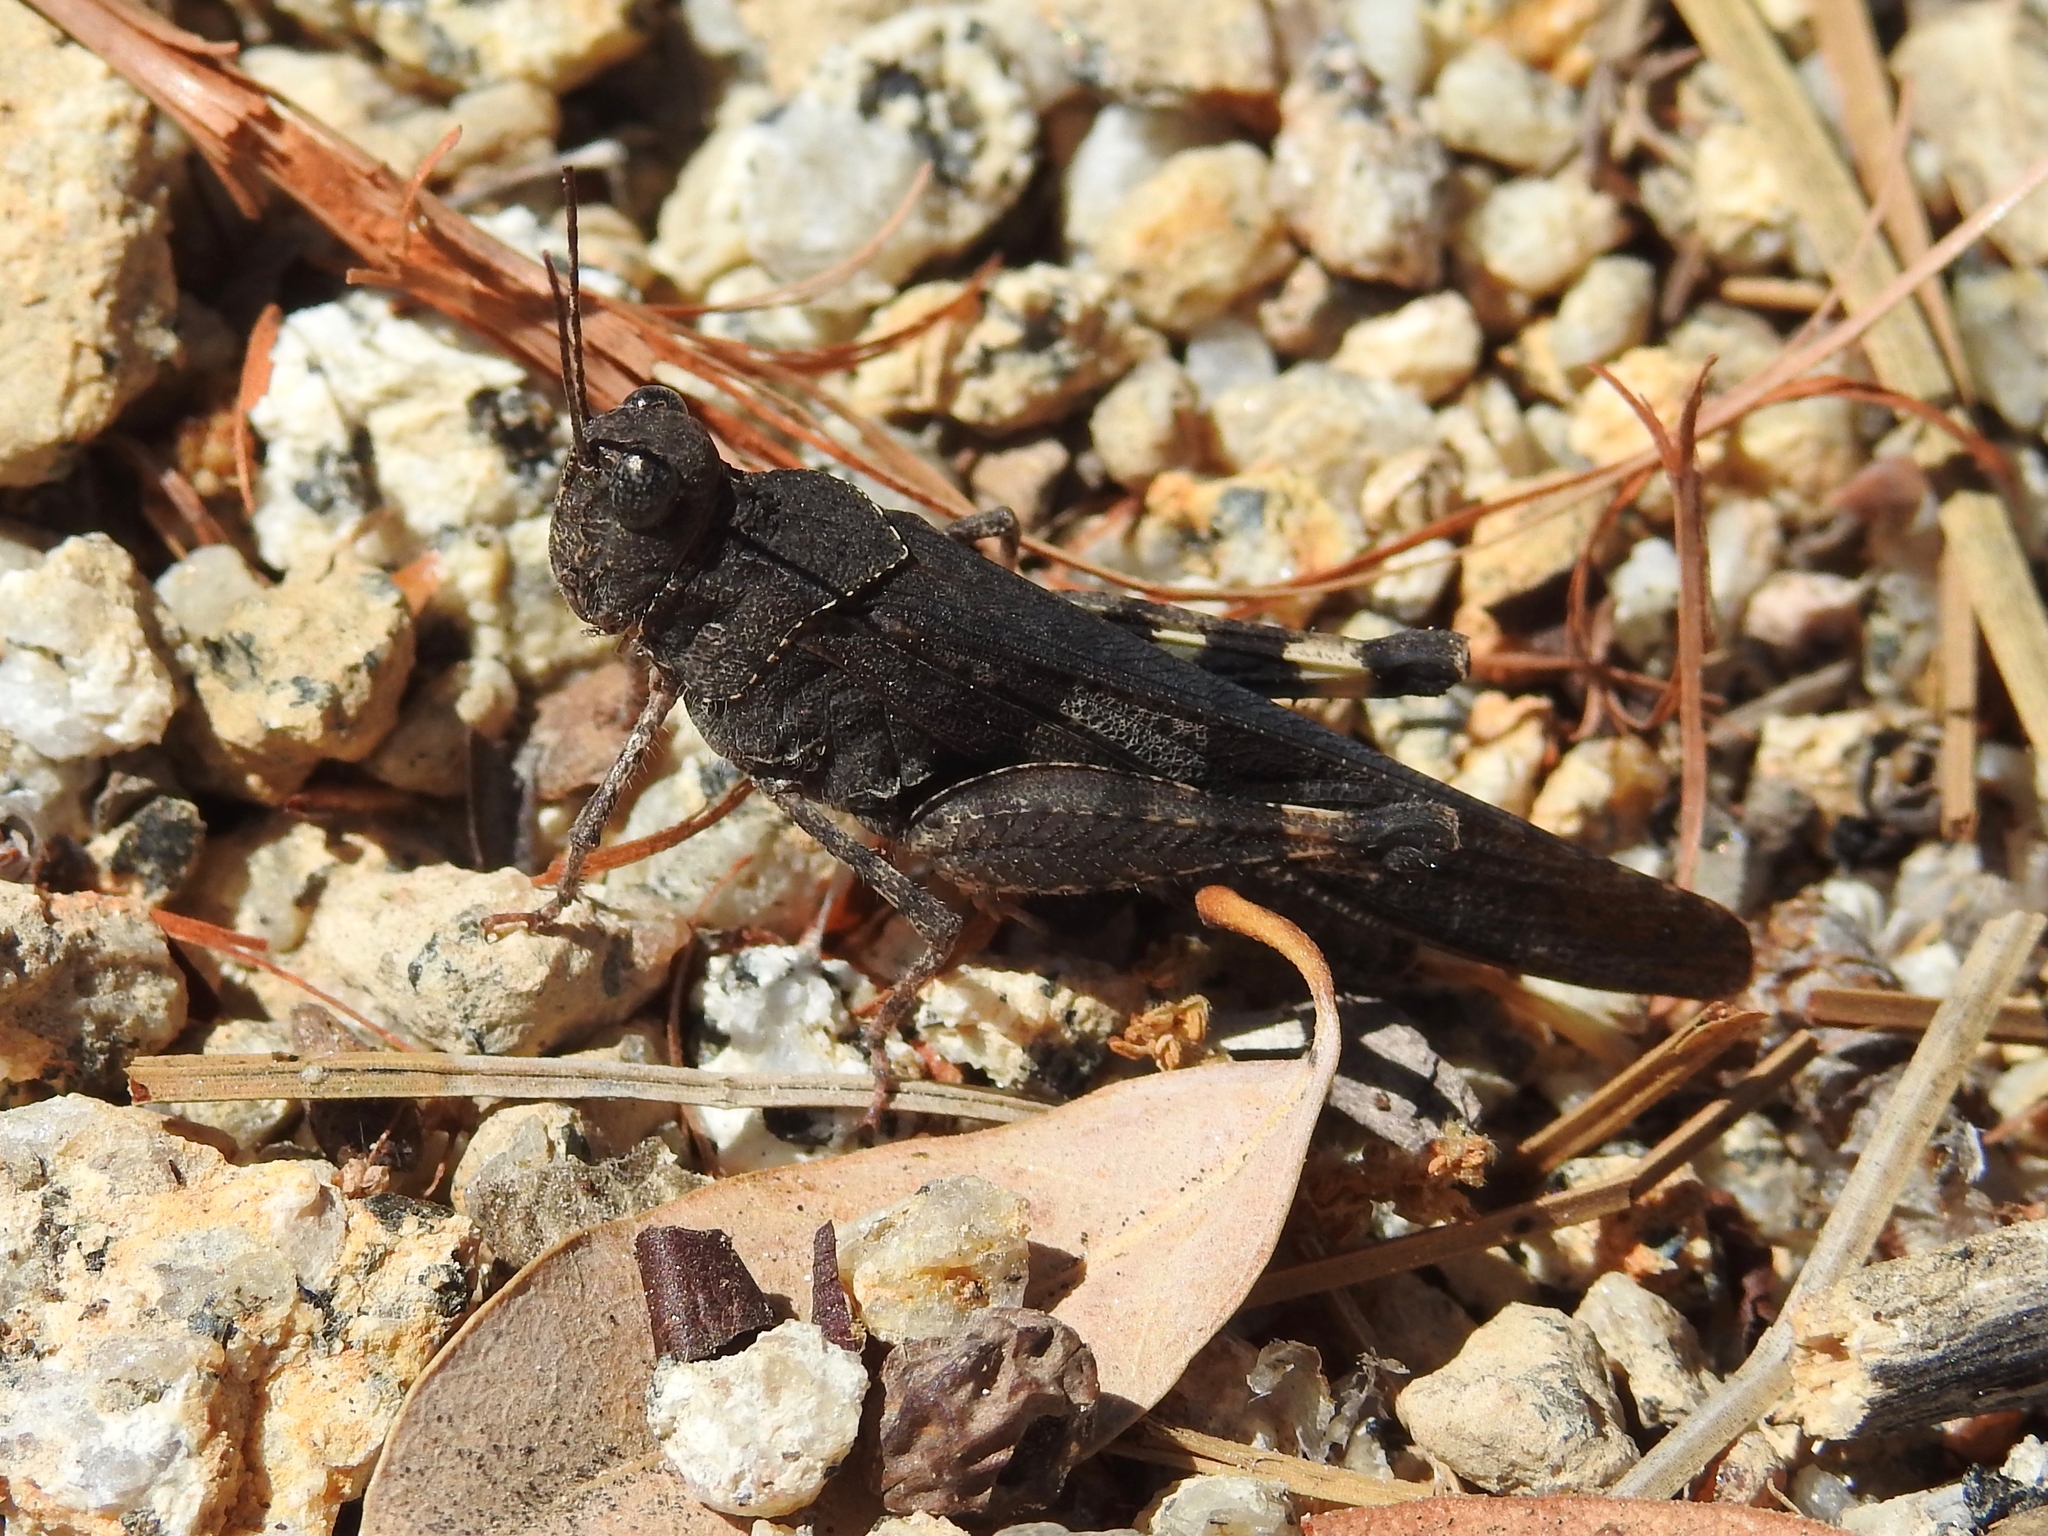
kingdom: Animalia
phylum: Arthropoda
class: Insecta
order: Orthoptera
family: Acrididae
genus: Trimerotropis
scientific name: Trimerotropis fontana
